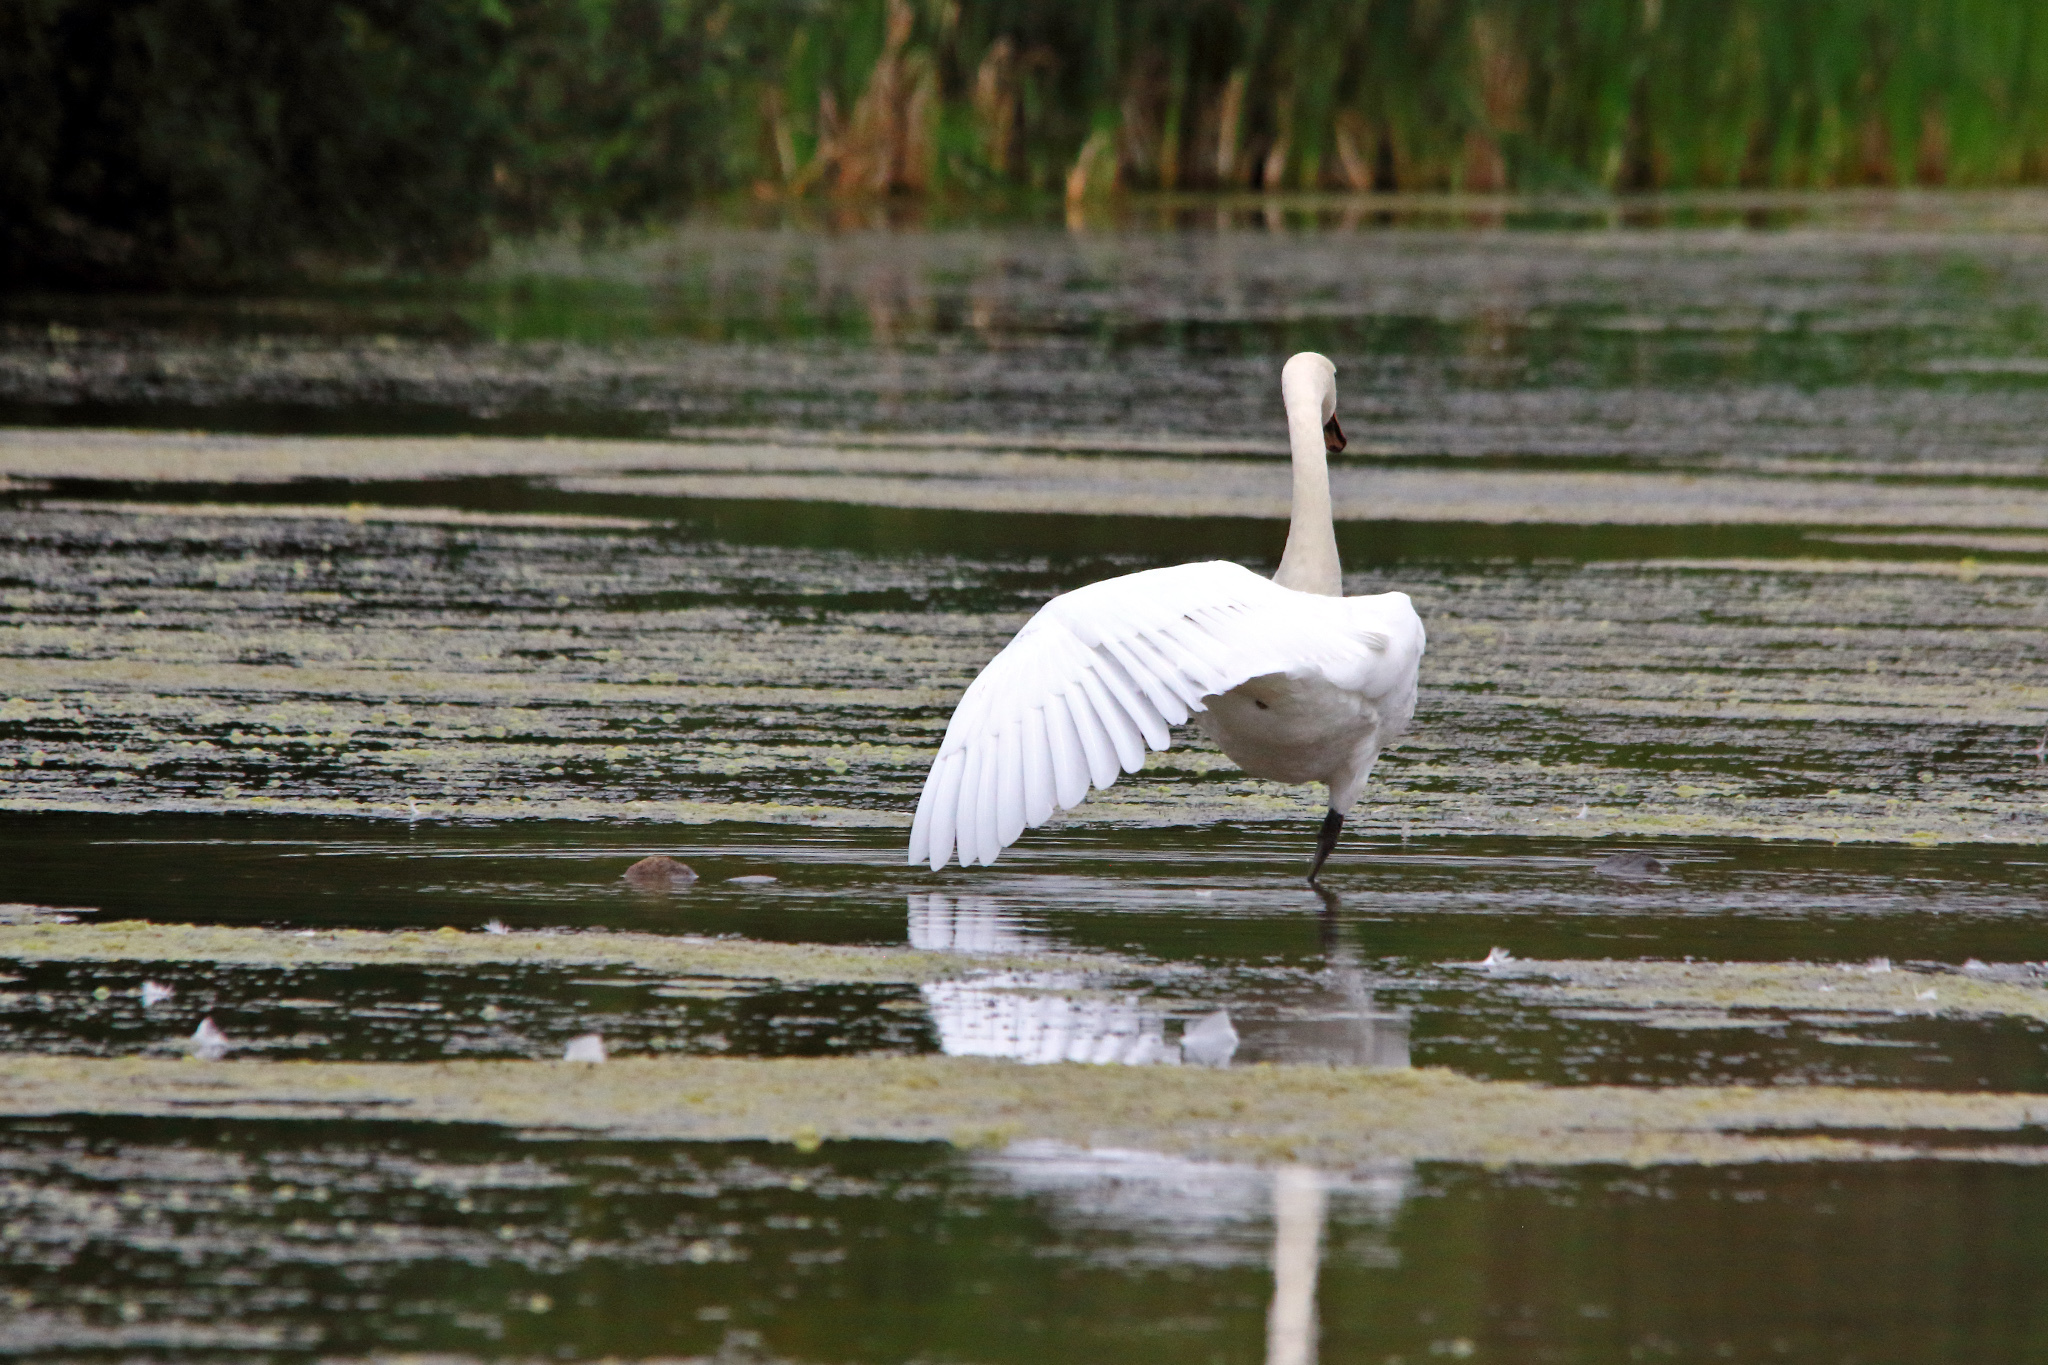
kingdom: Animalia
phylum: Chordata
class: Aves
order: Anseriformes
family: Anatidae
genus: Cygnus
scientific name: Cygnus olor
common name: Mute swan
